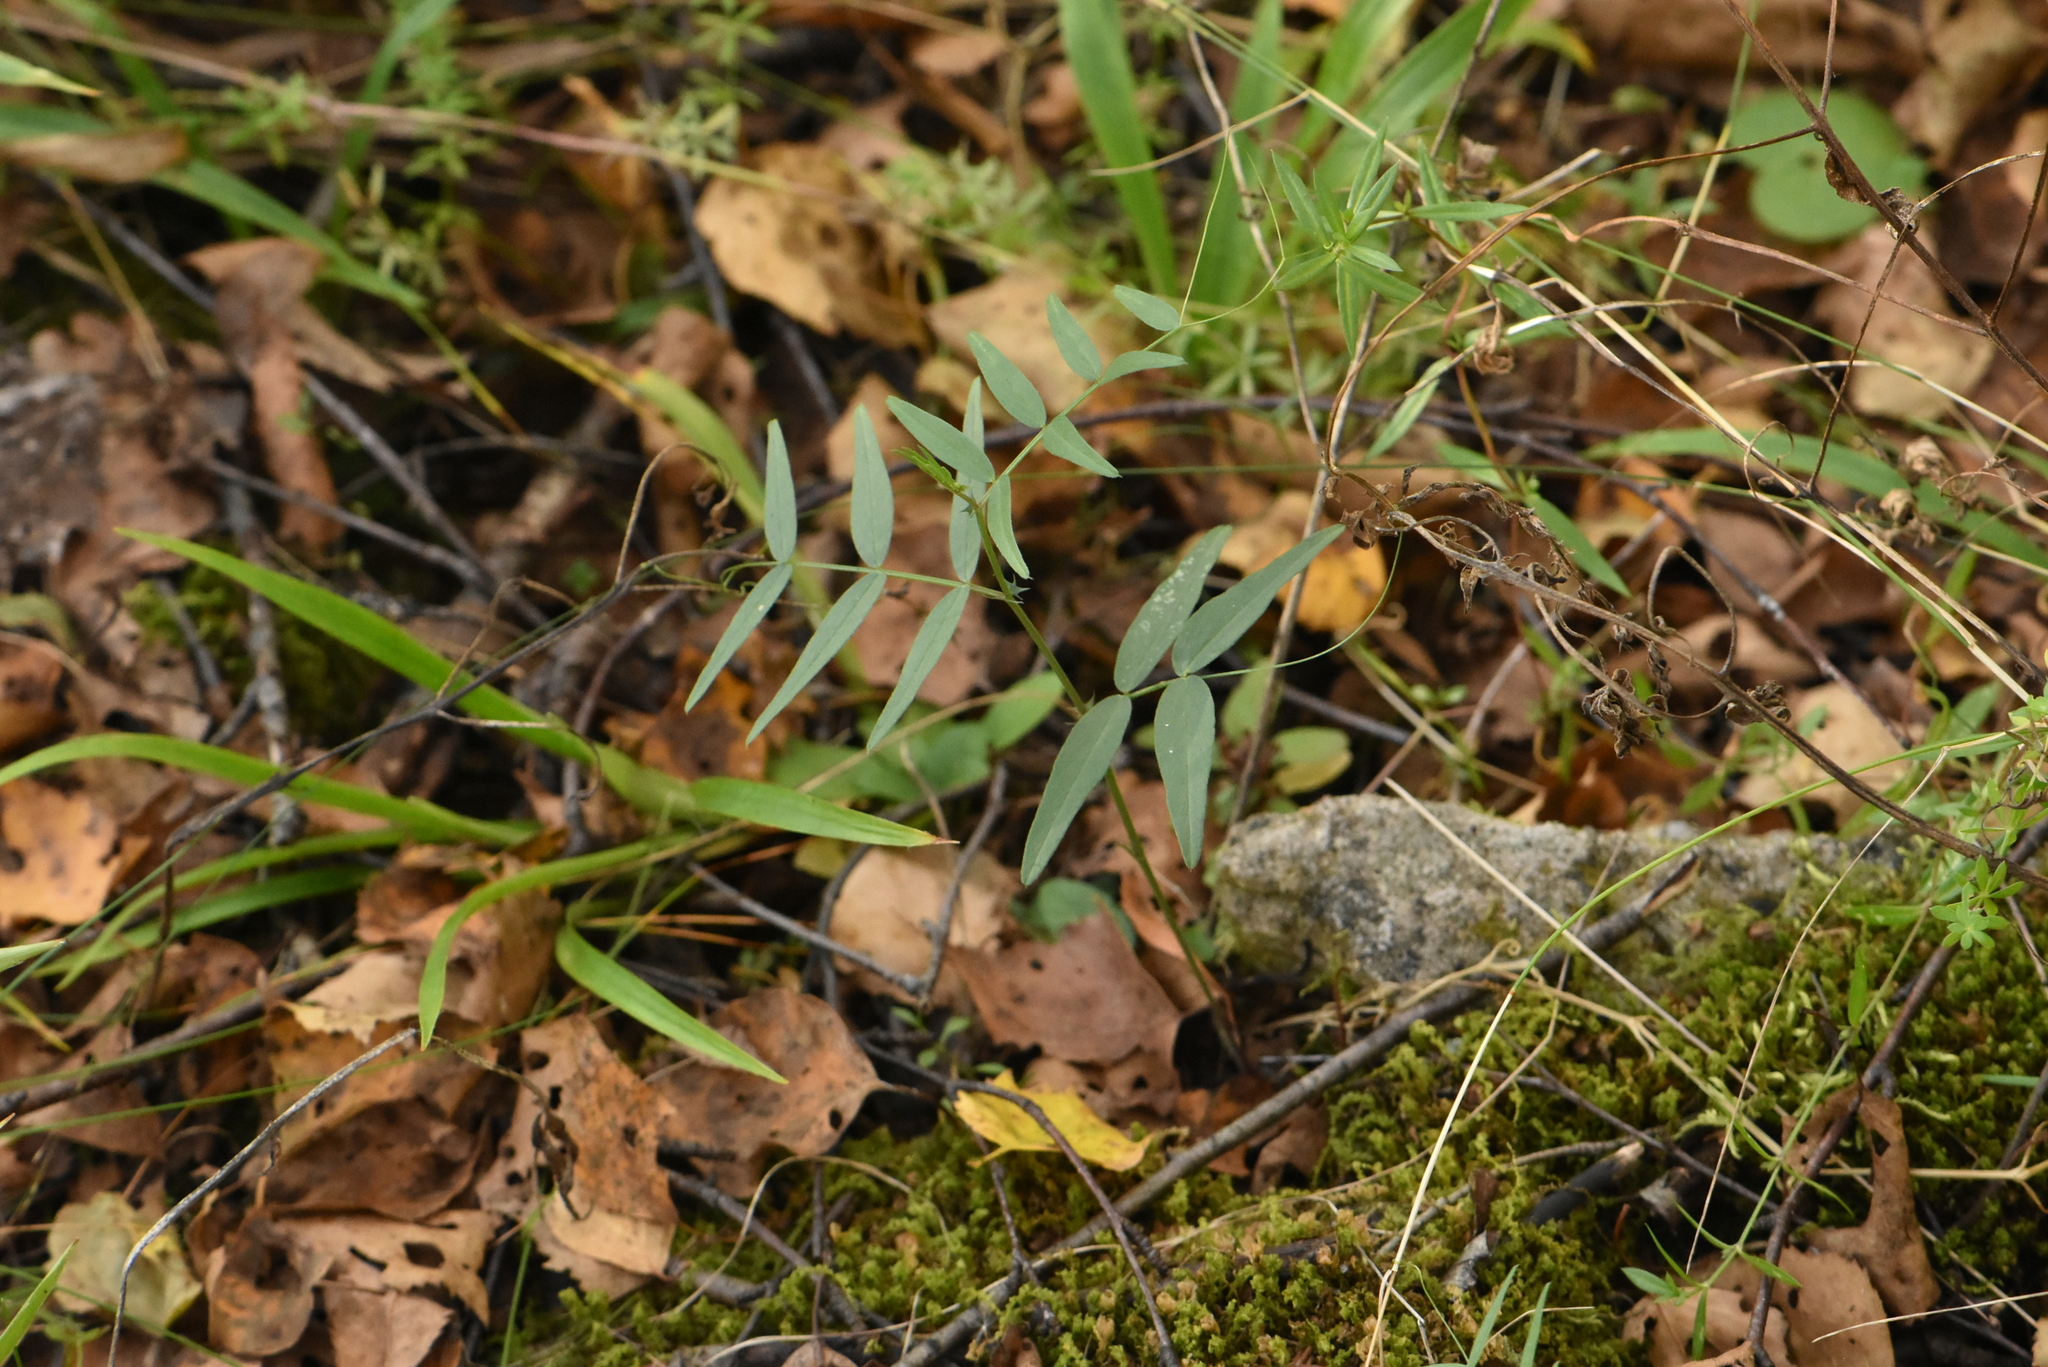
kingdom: Plantae
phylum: Tracheophyta
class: Magnoliopsida
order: Fabales
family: Fabaceae
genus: Vicia
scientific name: Vicia sepium
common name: Bush vetch
